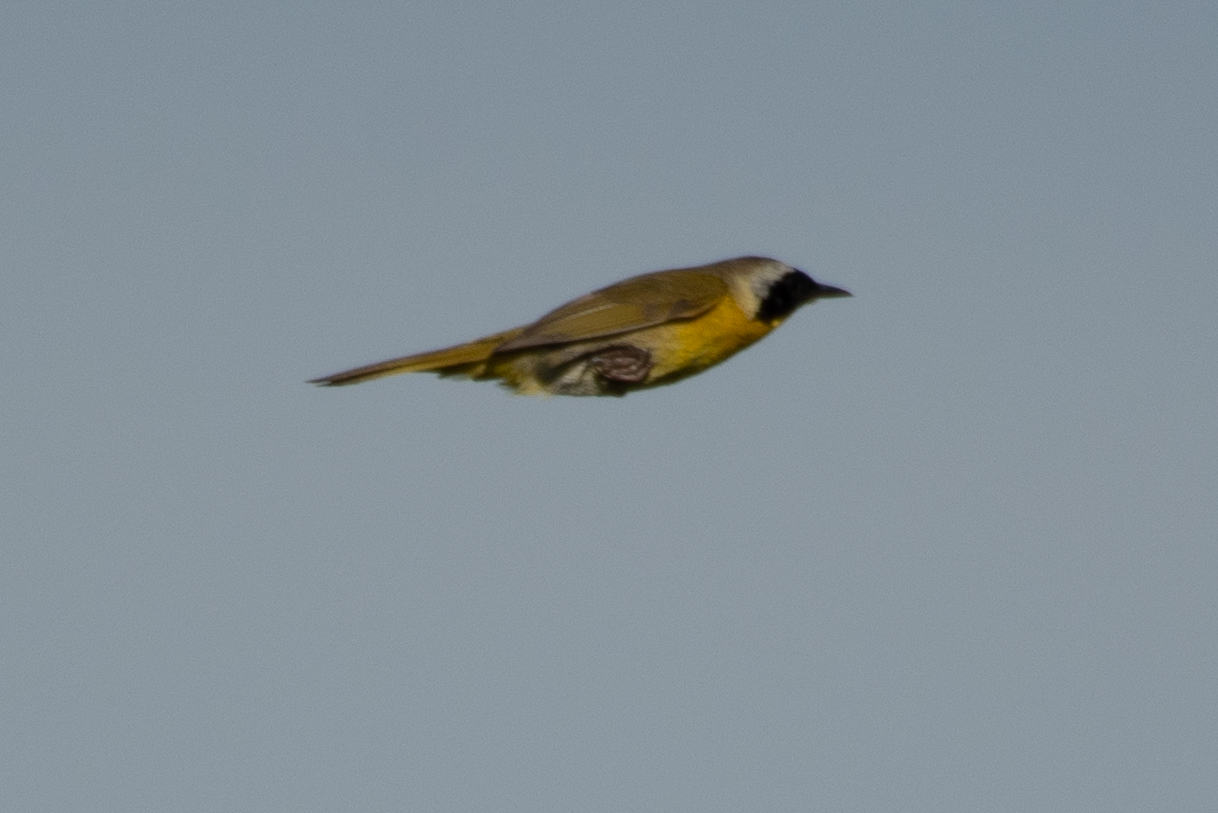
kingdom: Animalia
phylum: Chordata
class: Aves
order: Passeriformes
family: Parulidae
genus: Geothlypis
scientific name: Geothlypis trichas
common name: Common yellowthroat
